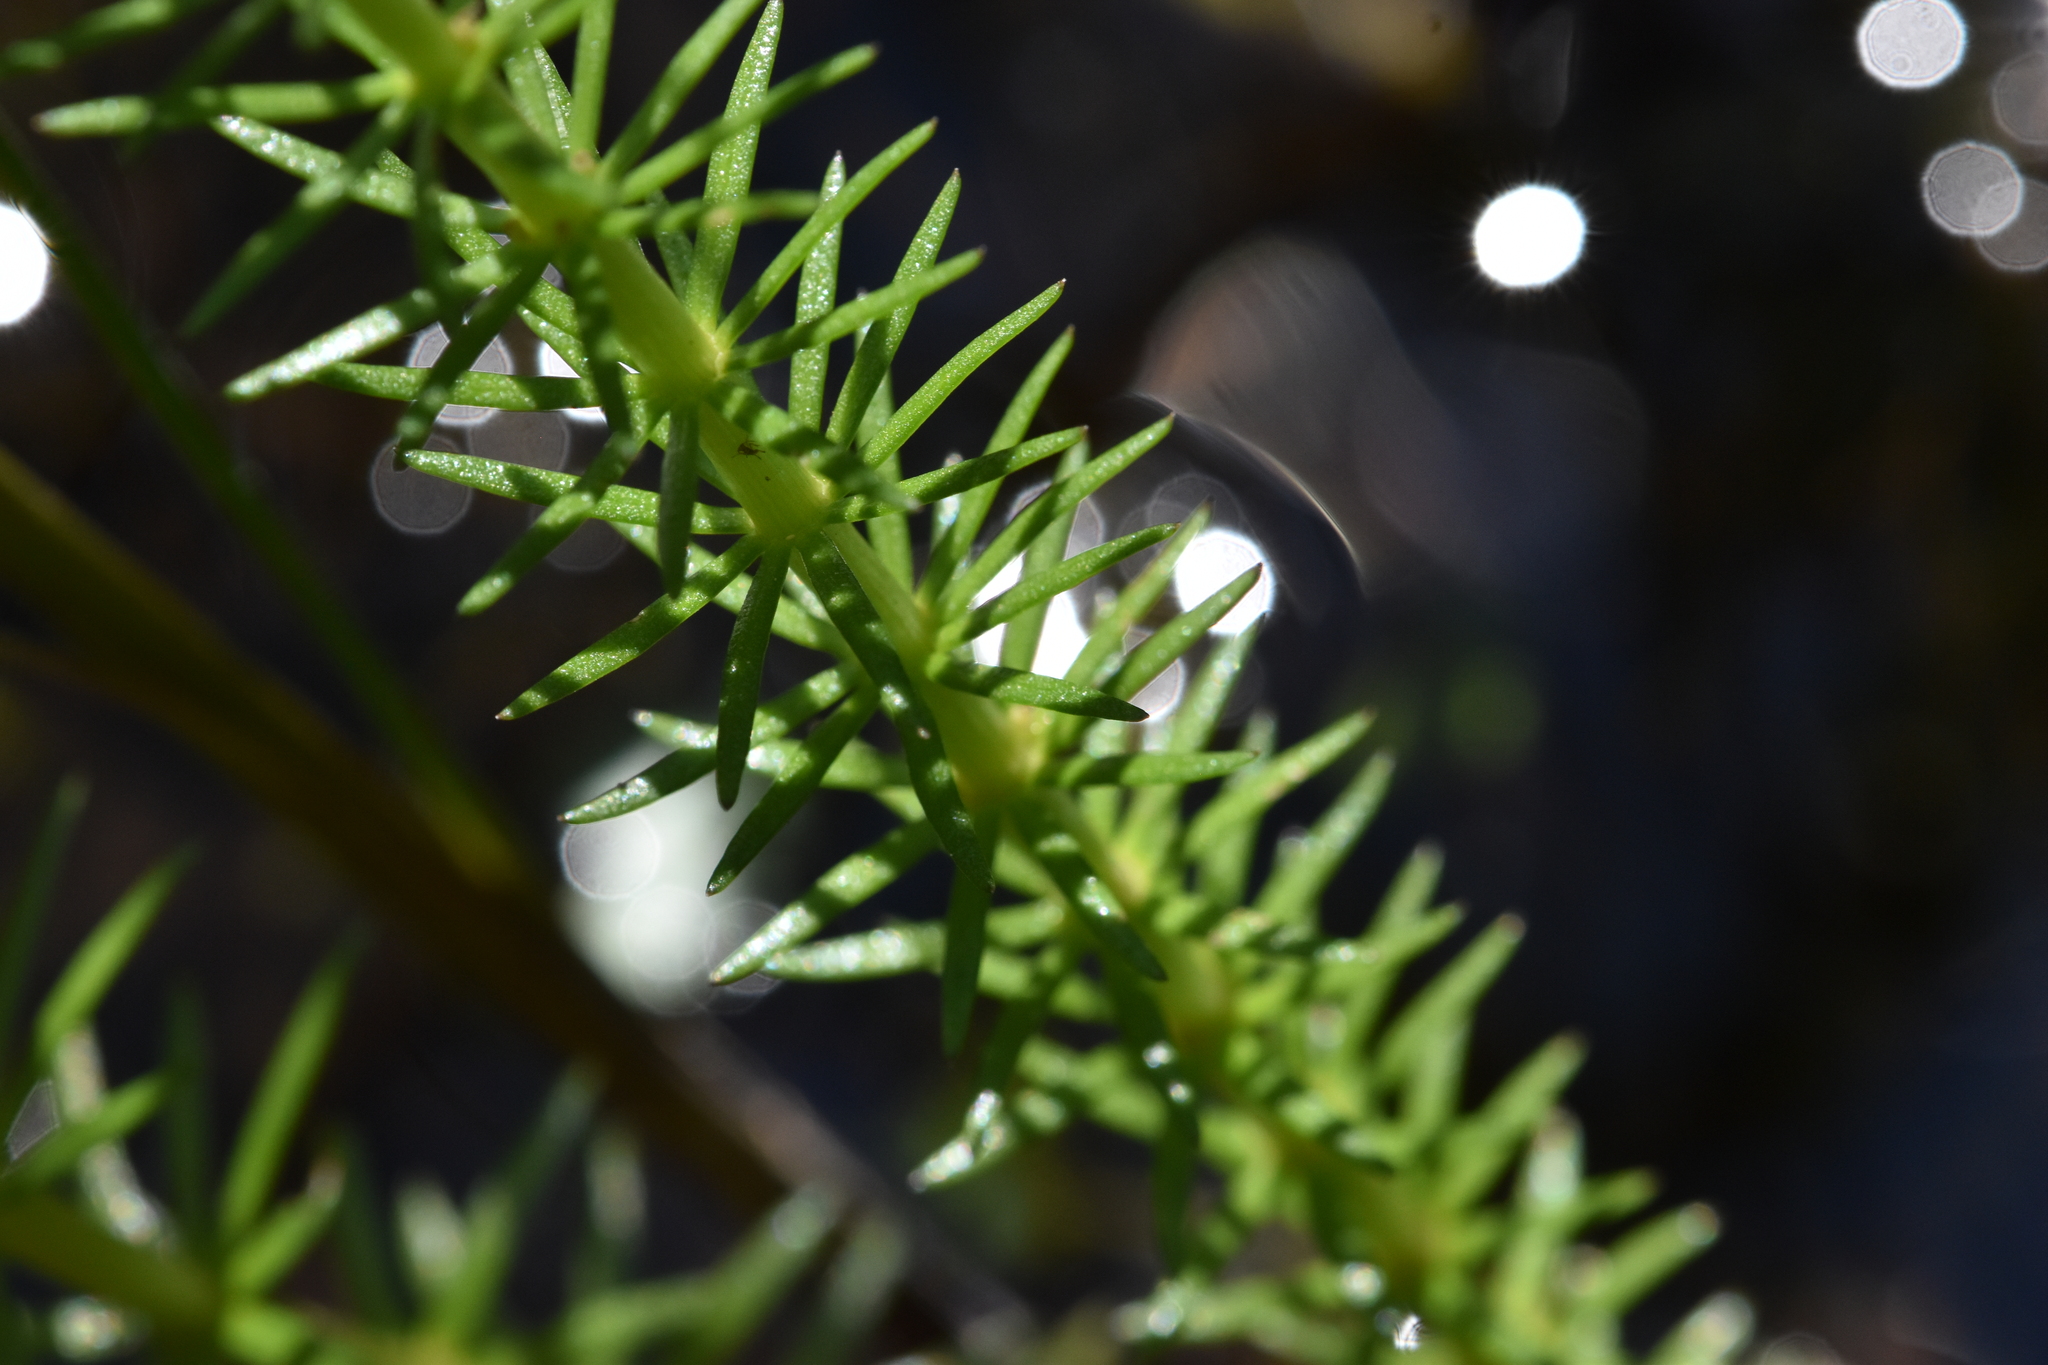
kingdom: Plantae
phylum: Tracheophyta
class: Magnoliopsida
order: Lamiales
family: Plantaginaceae
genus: Hippuris
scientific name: Hippuris vulgaris
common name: Mare's-tail
